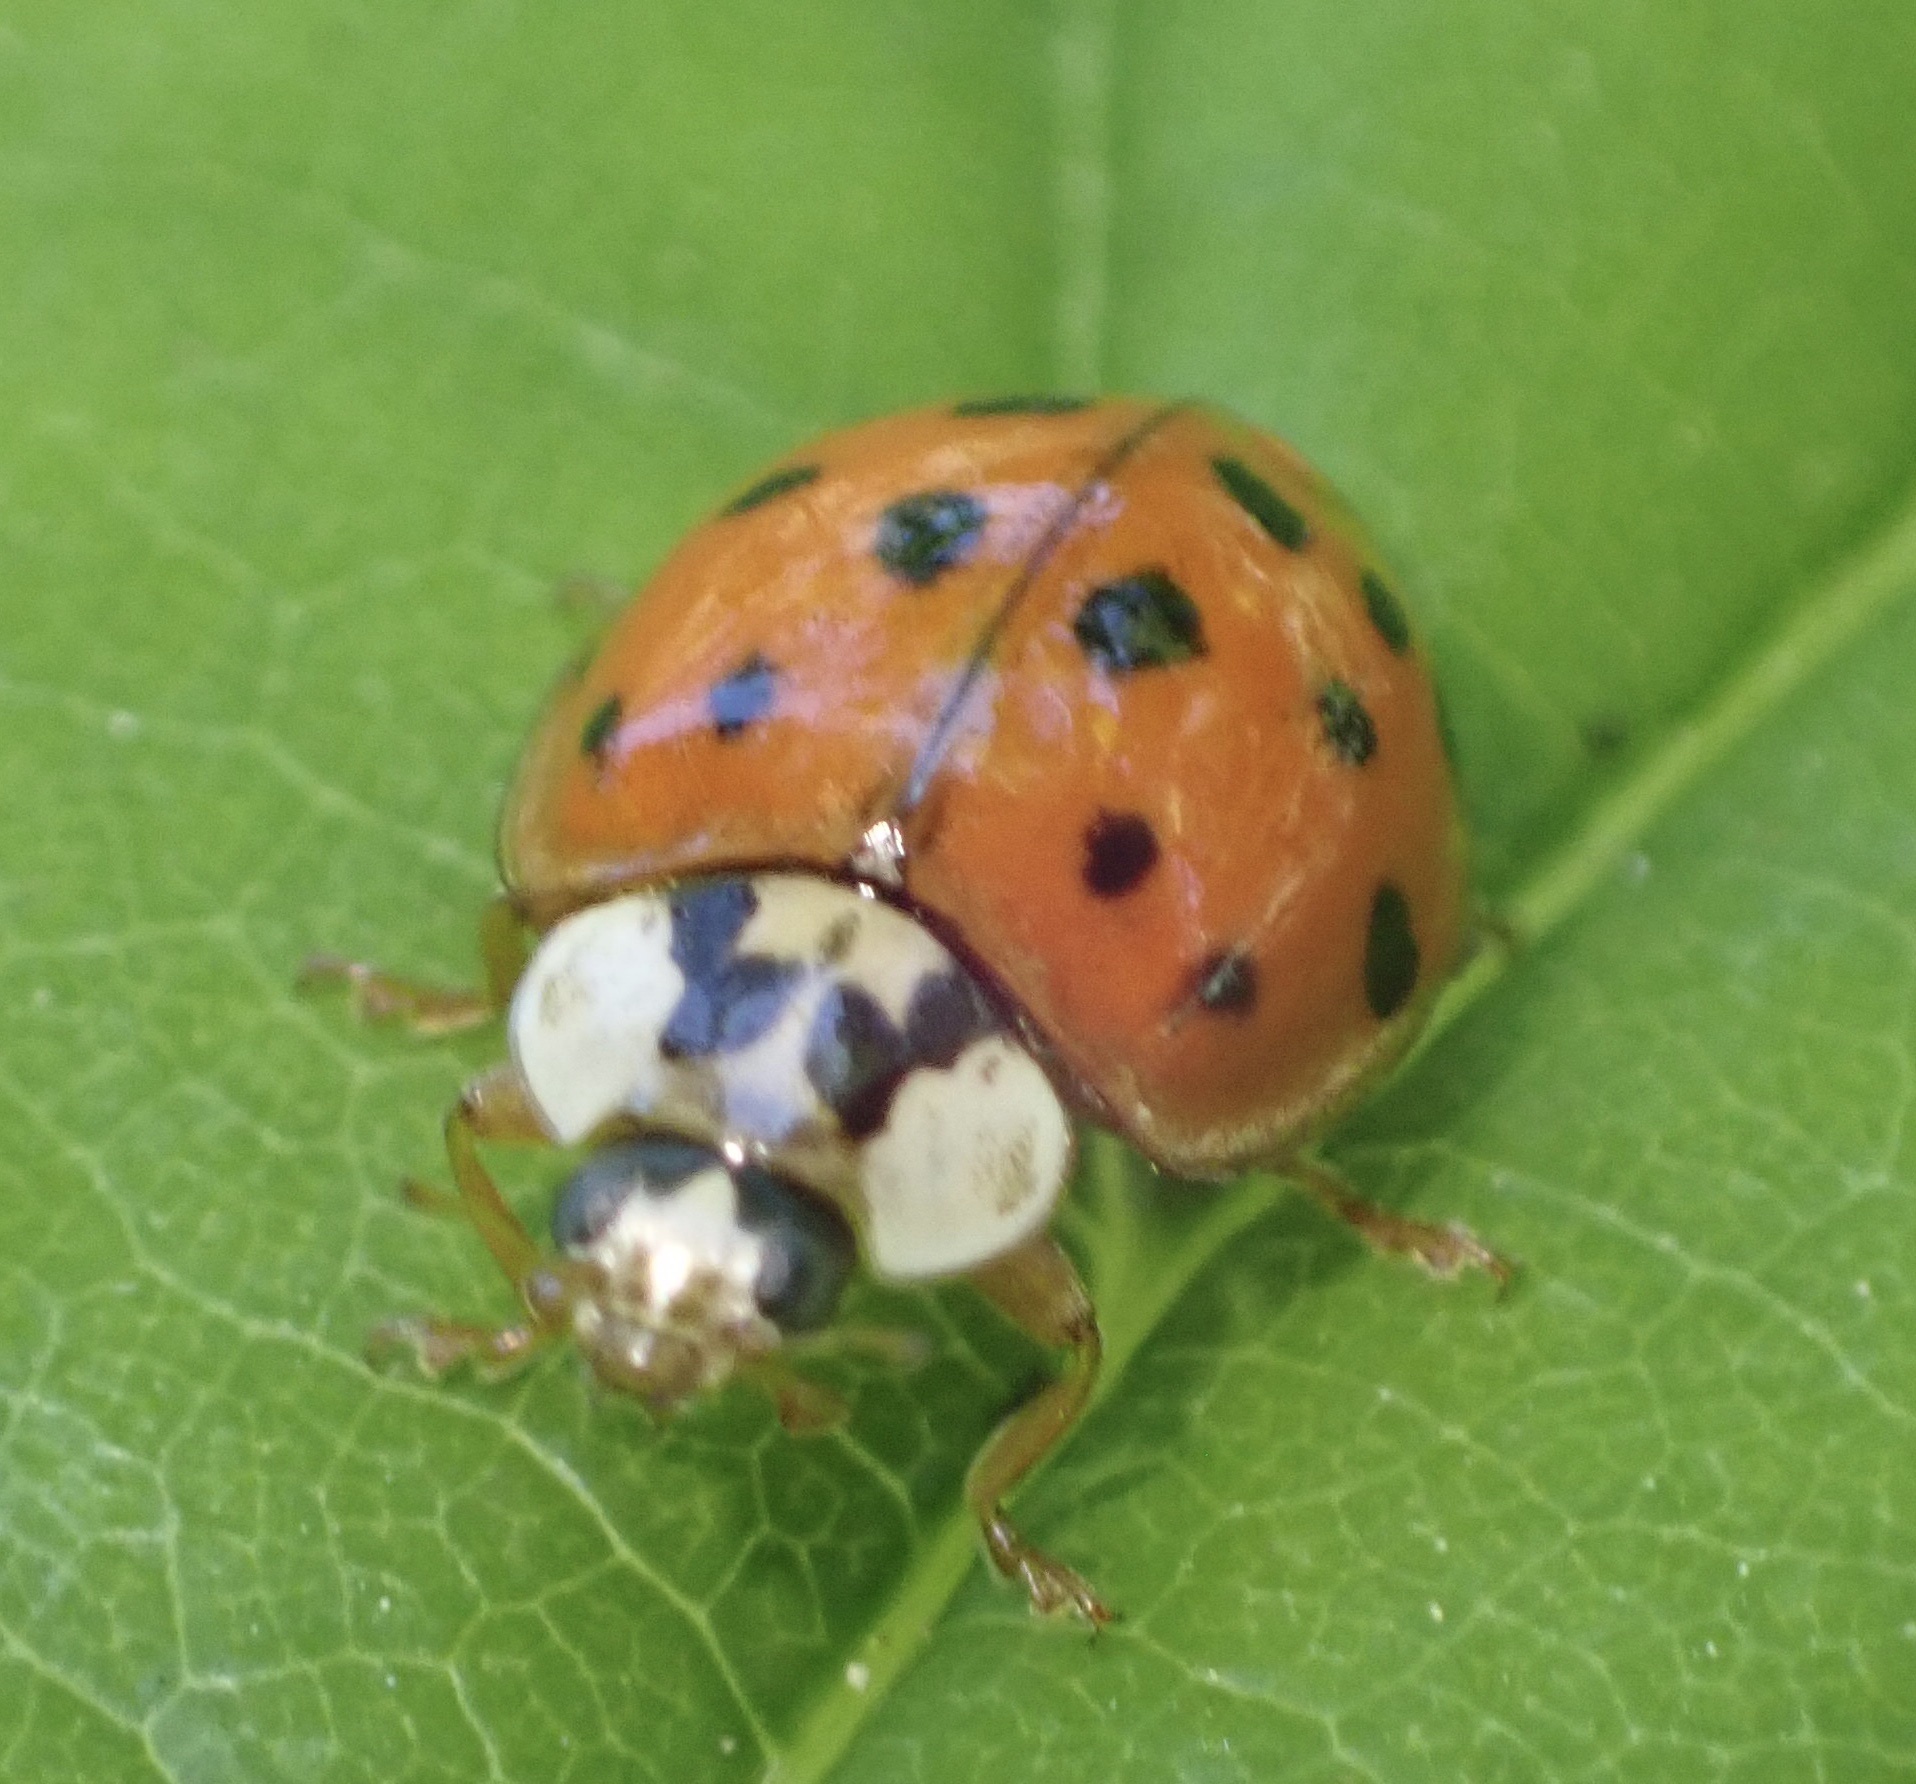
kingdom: Animalia
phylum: Arthropoda
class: Insecta
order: Coleoptera
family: Coccinellidae
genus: Harmonia
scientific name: Harmonia axyridis
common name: Harlequin ladybird
